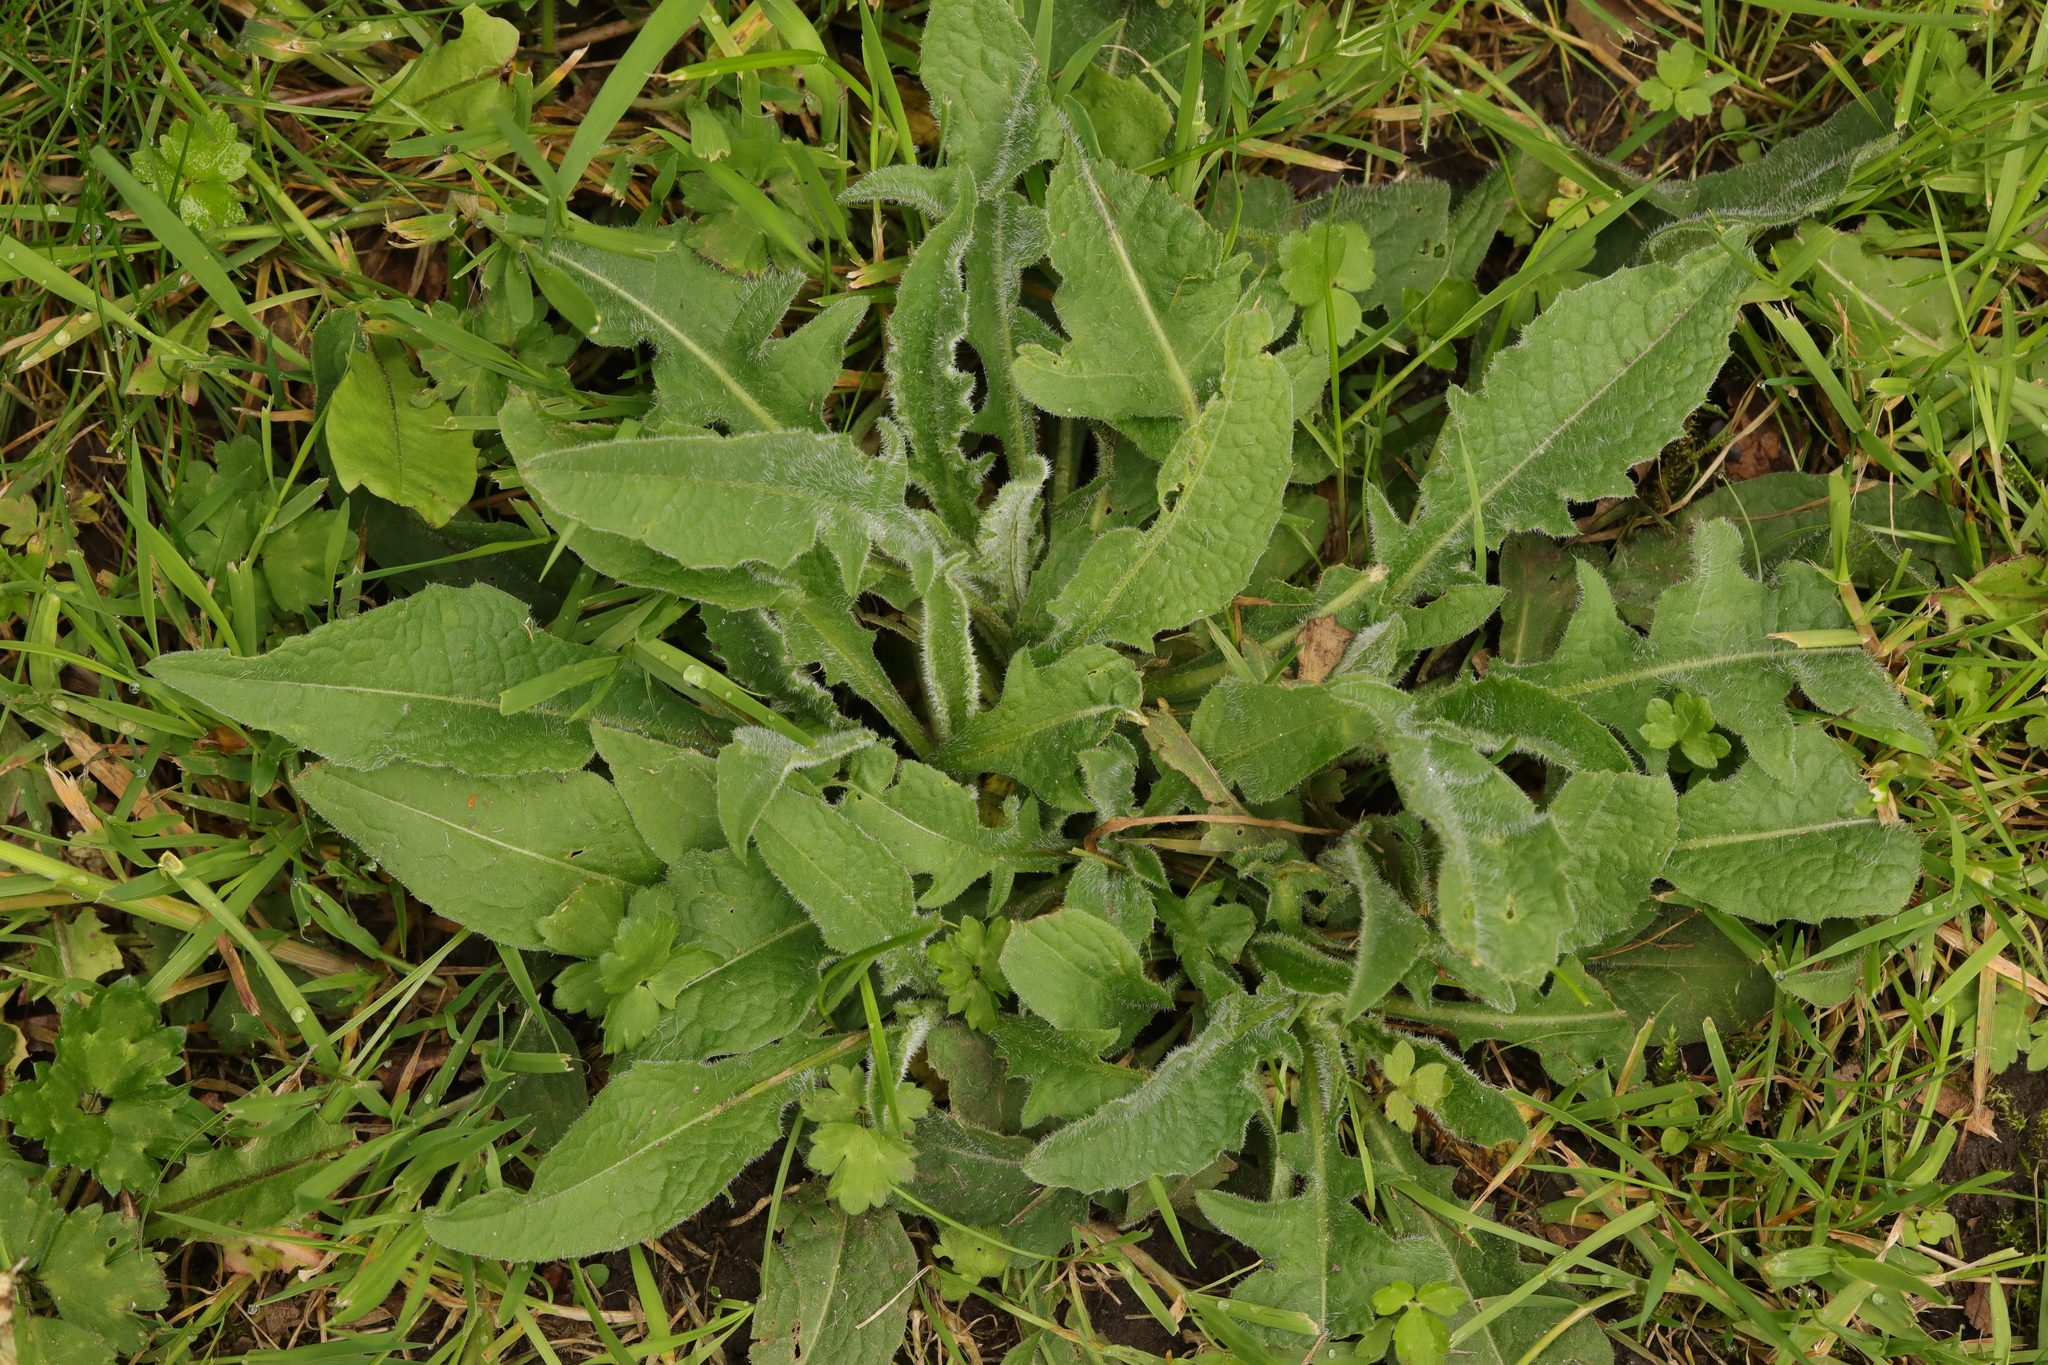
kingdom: Plantae
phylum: Tracheophyta
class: Magnoliopsida
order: Asterales
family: Asteraceae
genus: Centaurea
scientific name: Centaurea nigra
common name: Lesser knapweed
